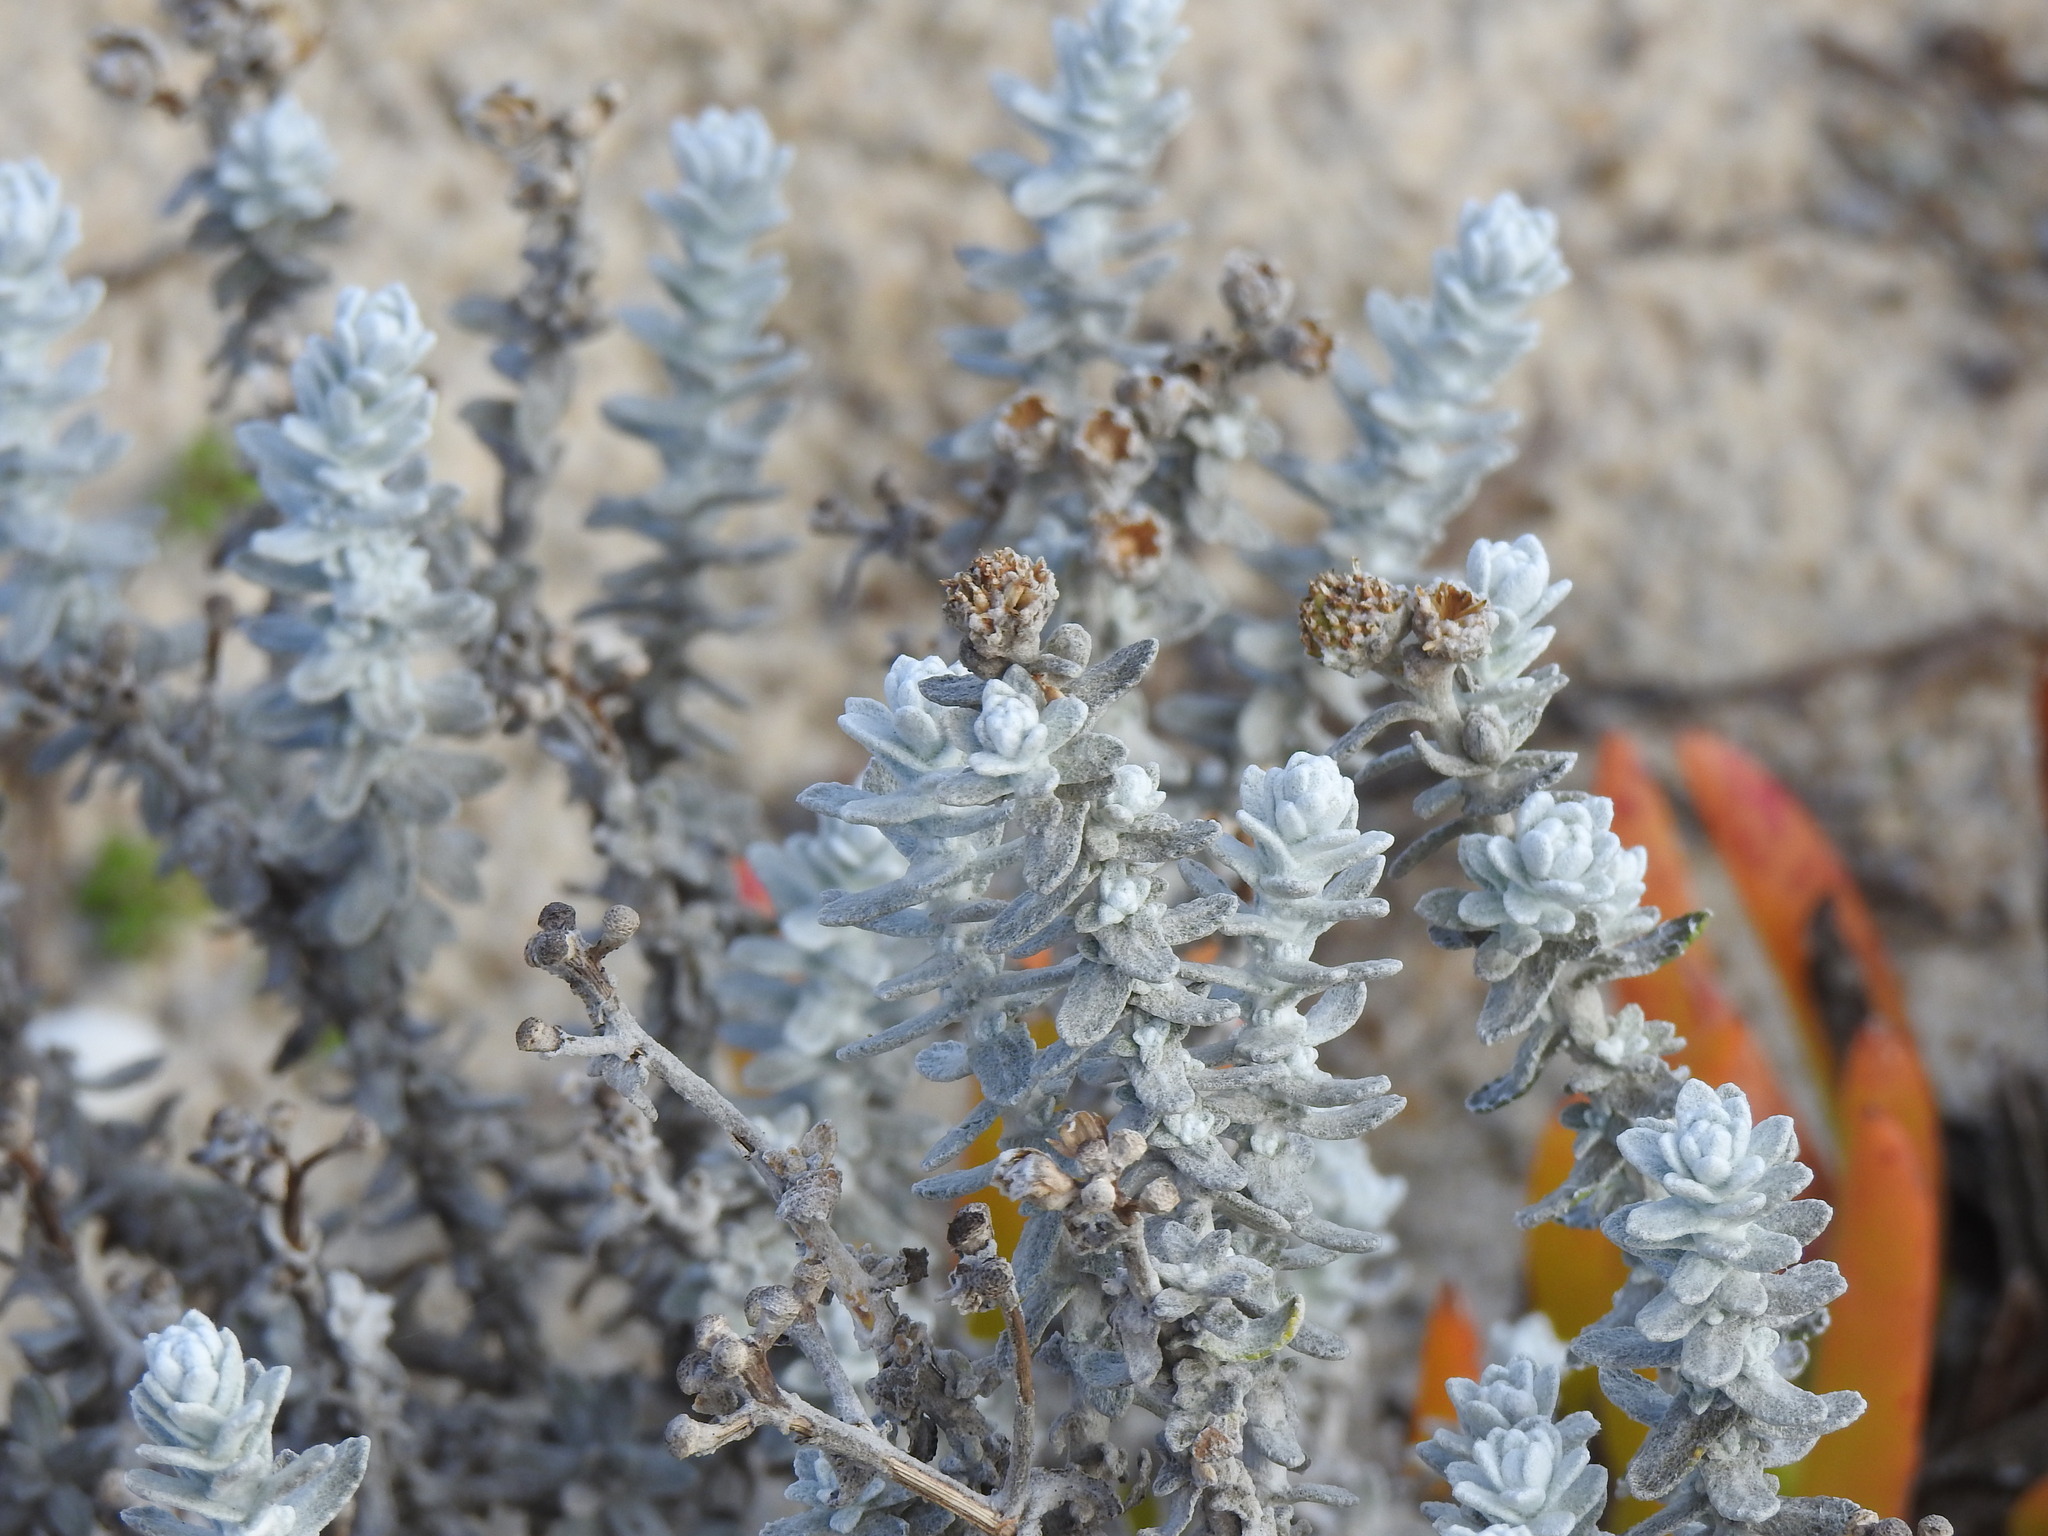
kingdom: Plantae
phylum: Tracheophyta
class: Magnoliopsida
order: Asterales
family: Asteraceae
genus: Achillea
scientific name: Achillea maritima
